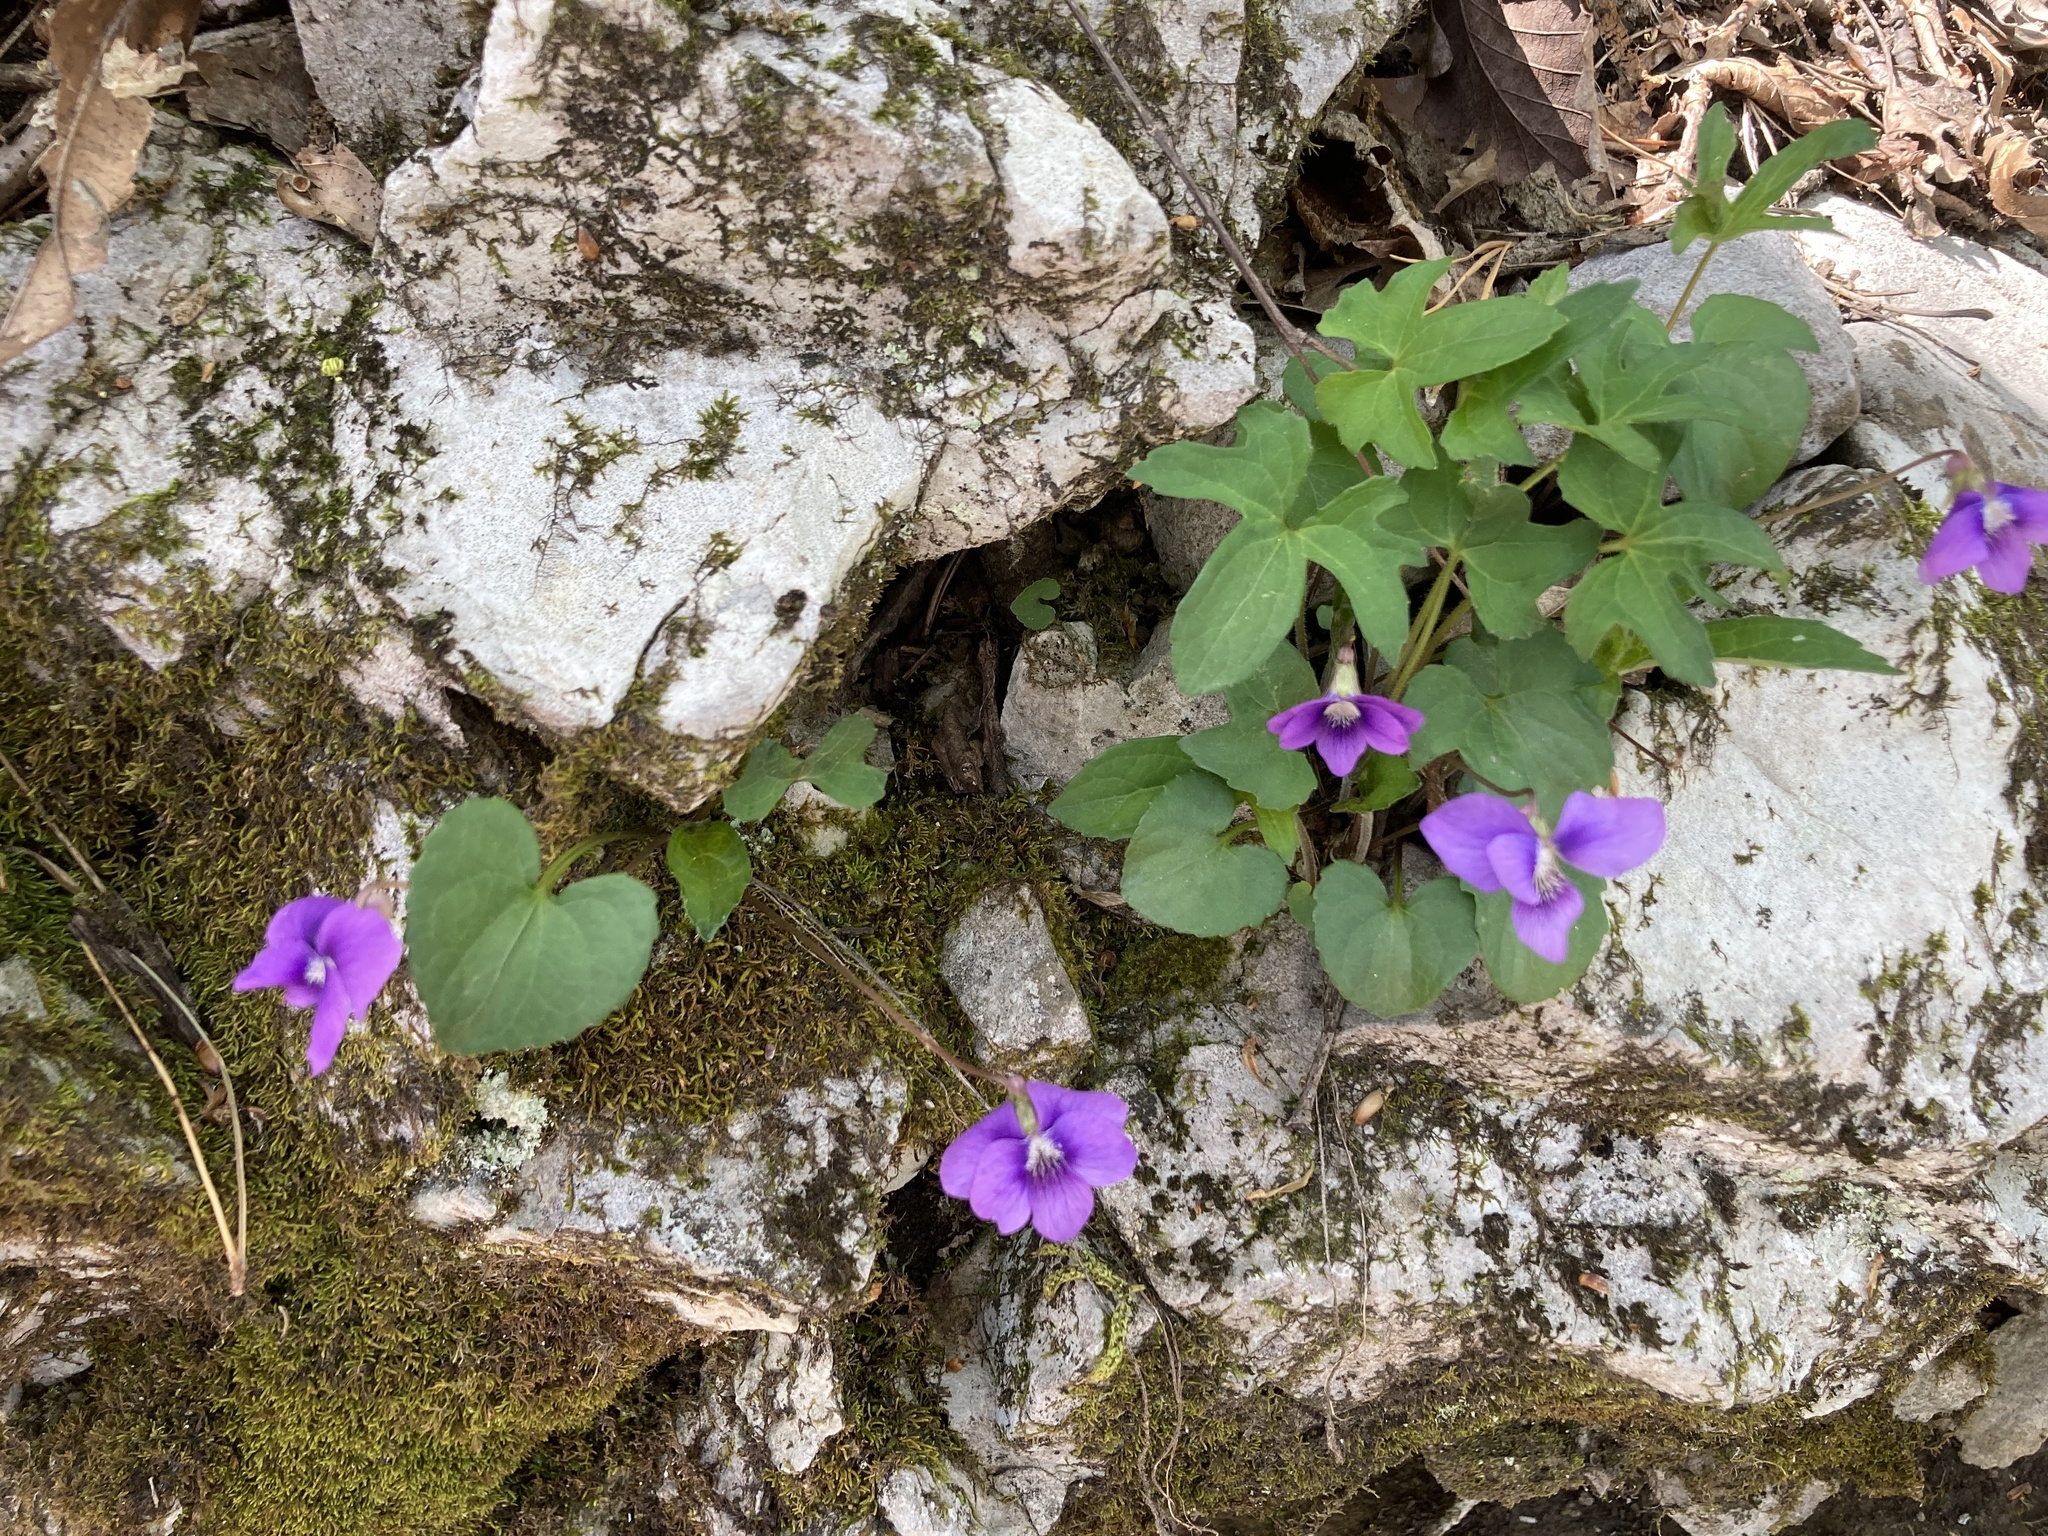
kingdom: Plantae
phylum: Tracheophyta
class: Magnoliopsida
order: Malpighiales
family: Violaceae
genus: Viola
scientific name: Viola palmata
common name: Early blue violet
